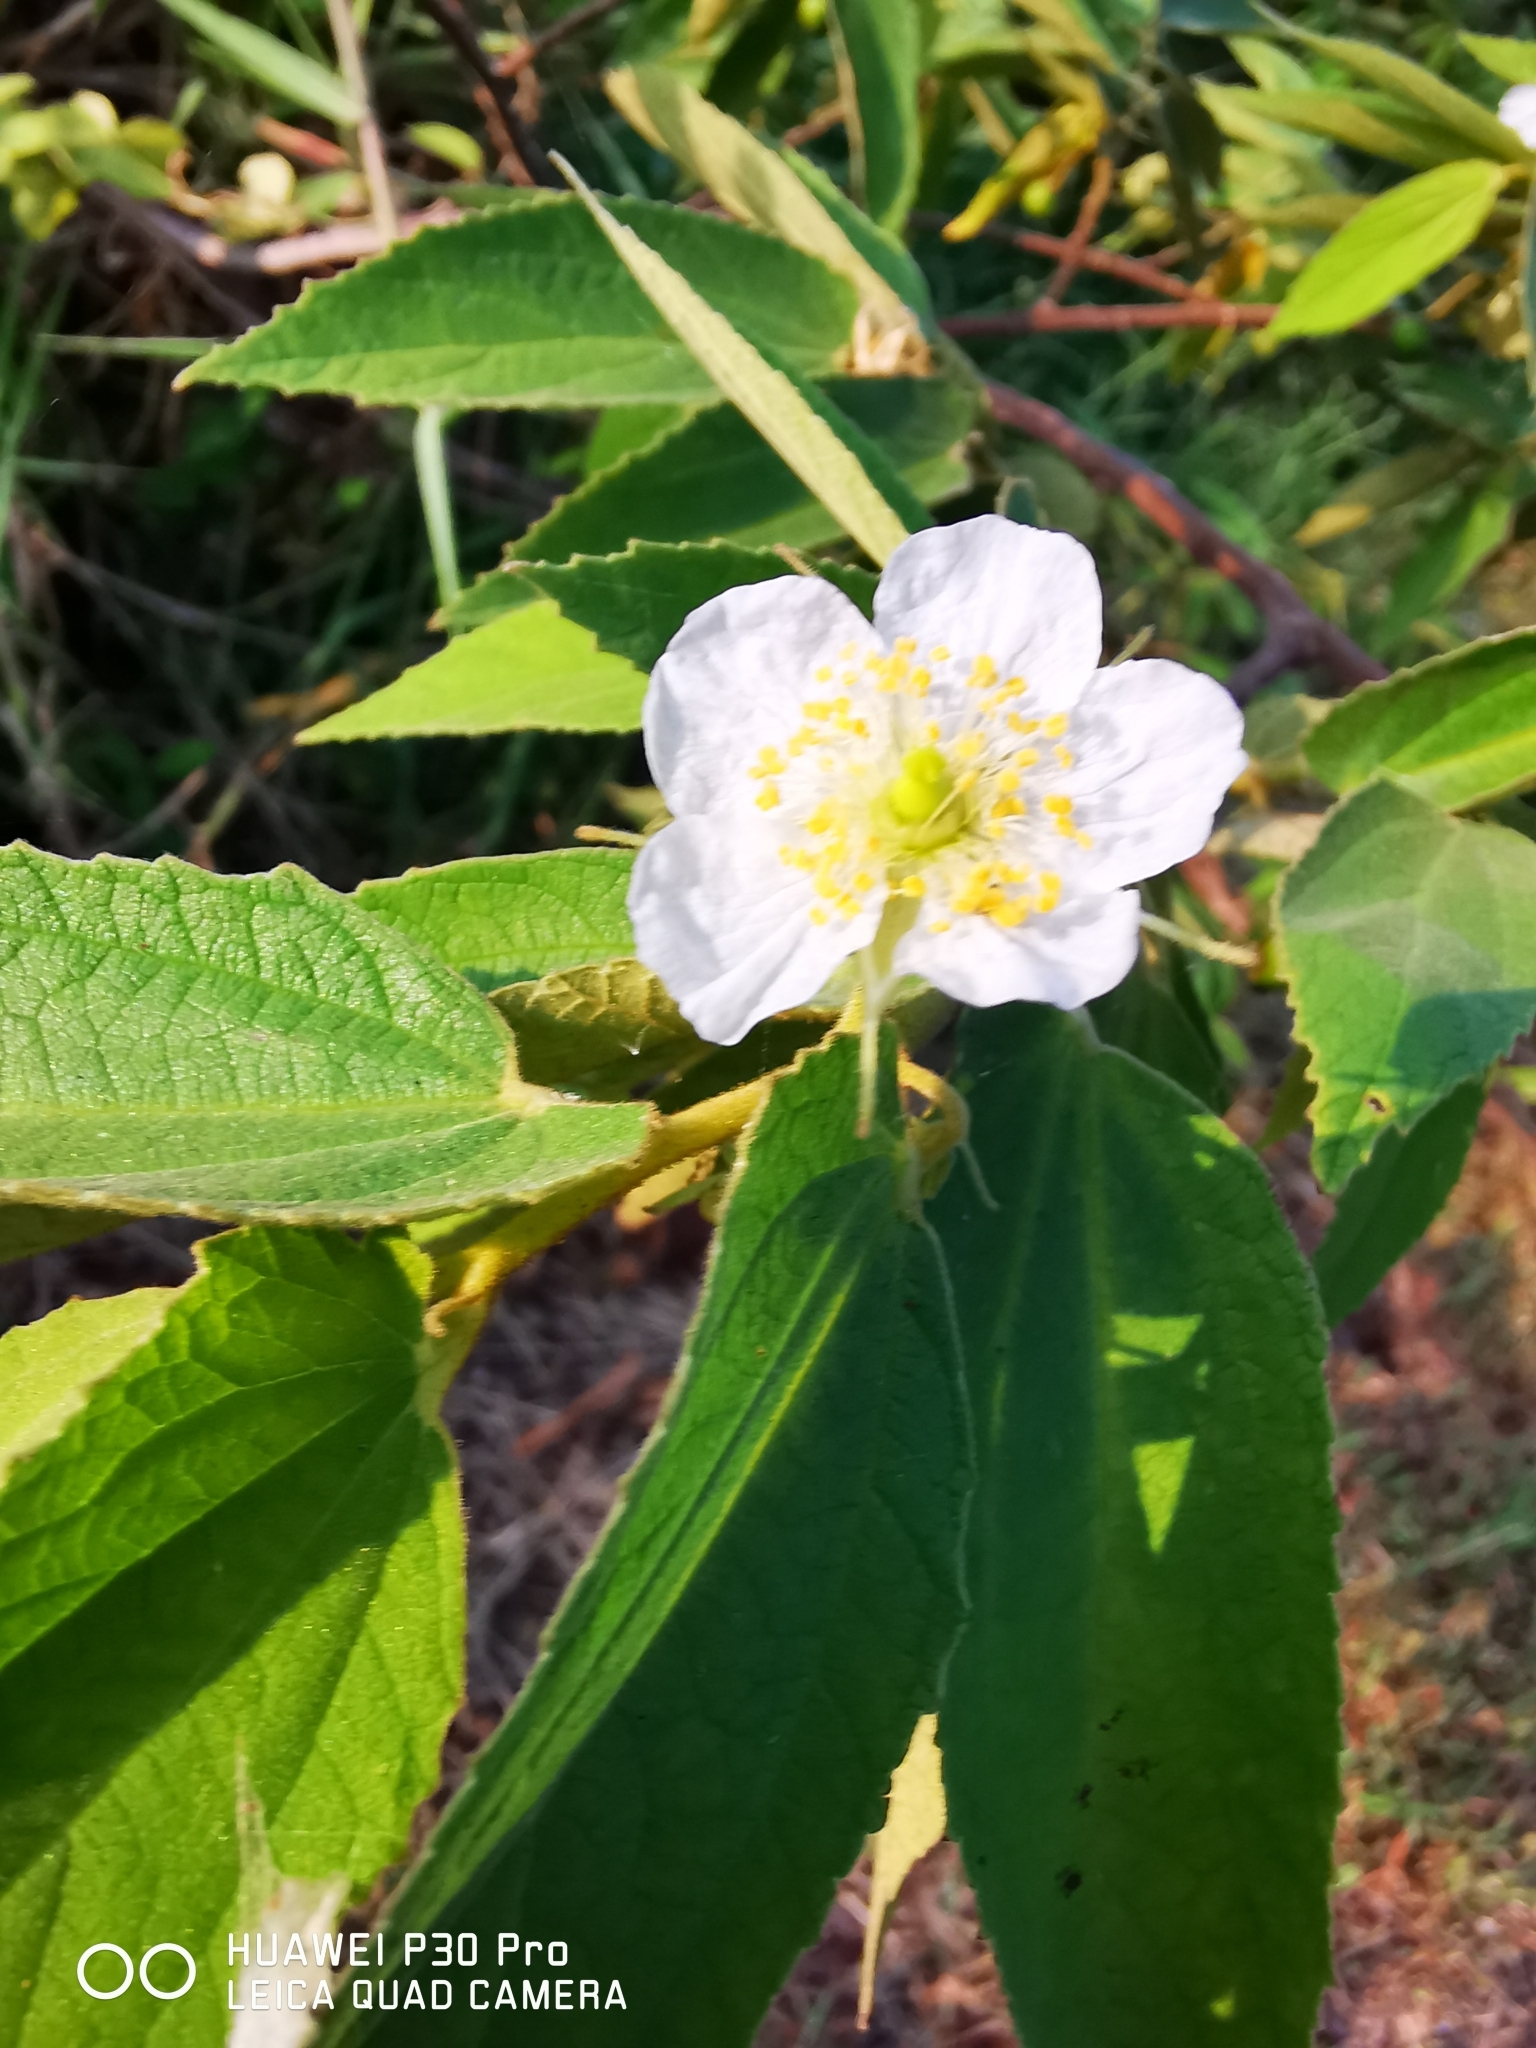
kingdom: Plantae
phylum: Tracheophyta
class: Magnoliopsida
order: Malvales
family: Muntingiaceae
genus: Muntingia
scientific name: Muntingia calabura
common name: Strawberrytree
